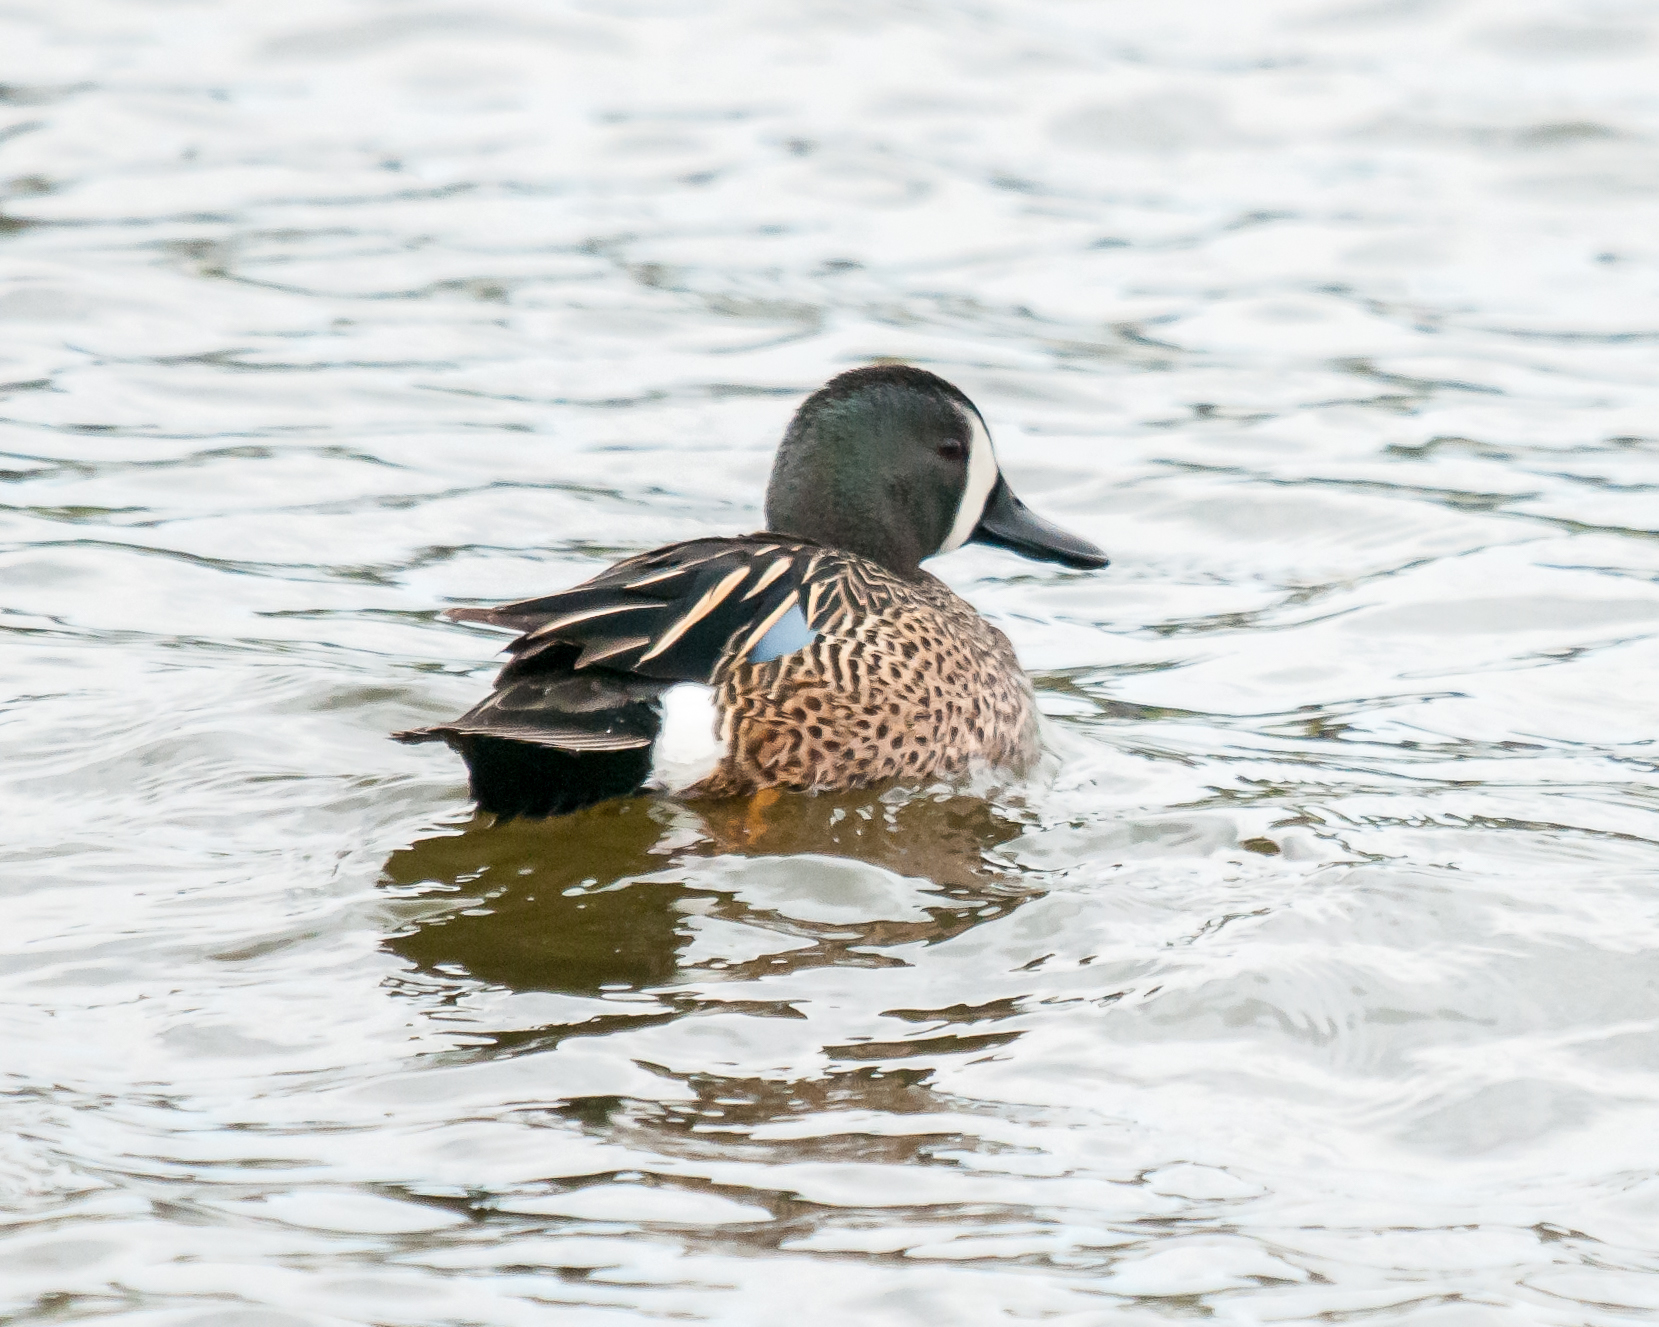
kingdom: Animalia
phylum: Chordata
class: Aves
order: Anseriformes
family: Anatidae
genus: Spatula
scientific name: Spatula discors
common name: Blue-winged teal
